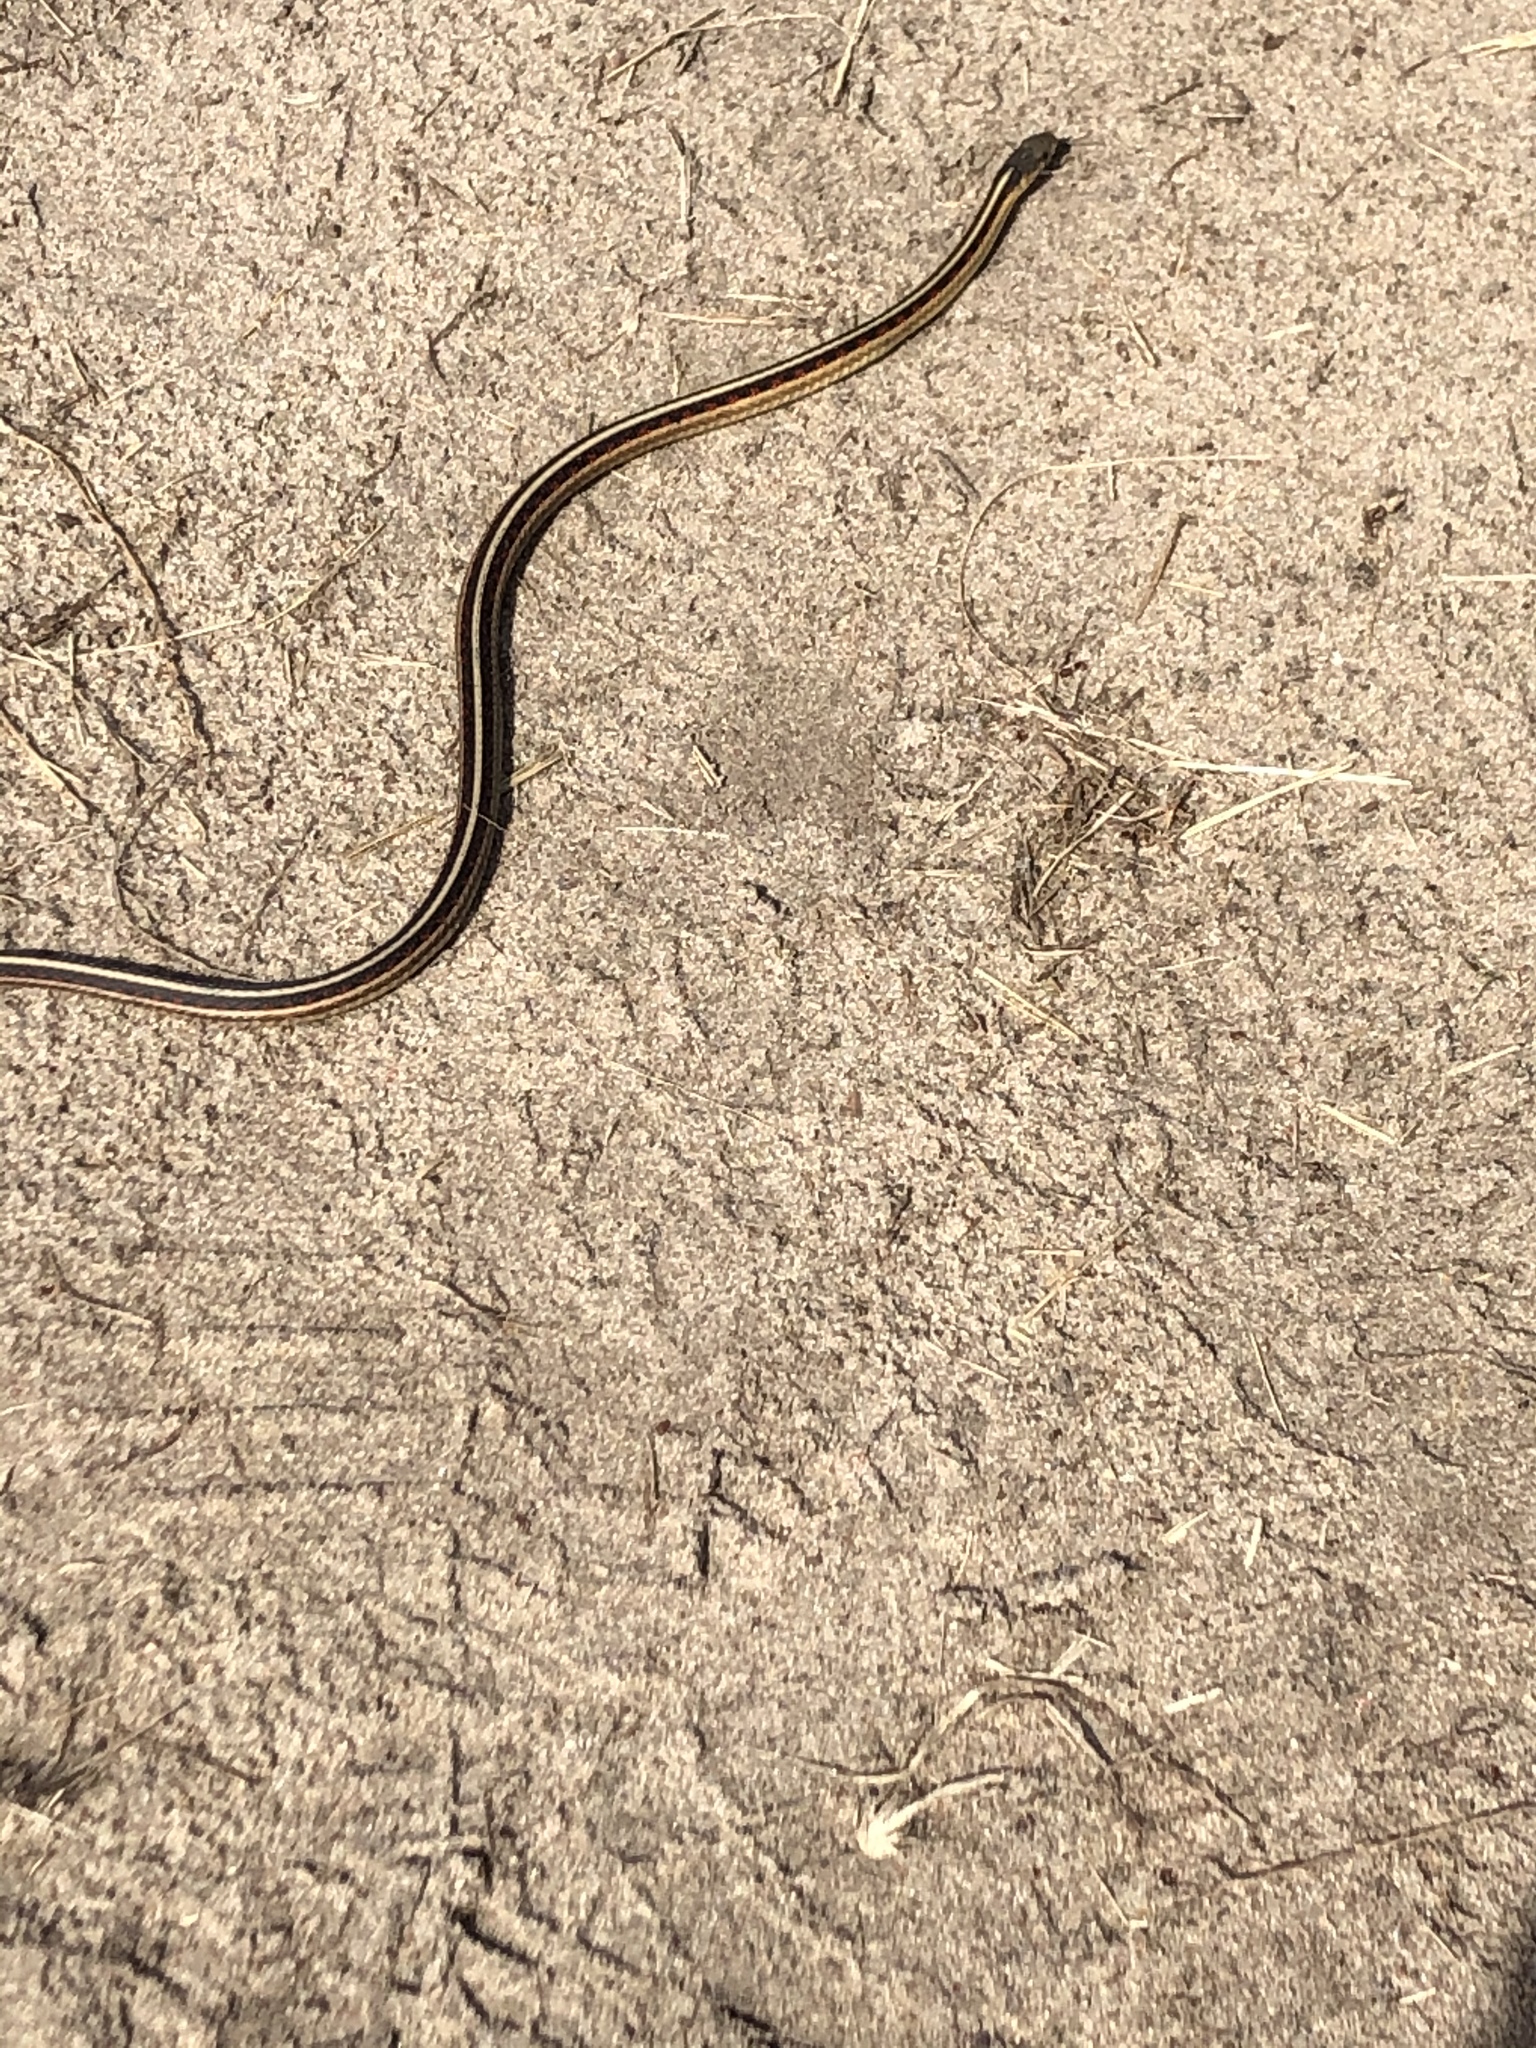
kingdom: Animalia
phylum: Chordata
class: Squamata
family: Colubridae
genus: Thamnophis
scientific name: Thamnophis sirtalis
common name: Common garter snake
